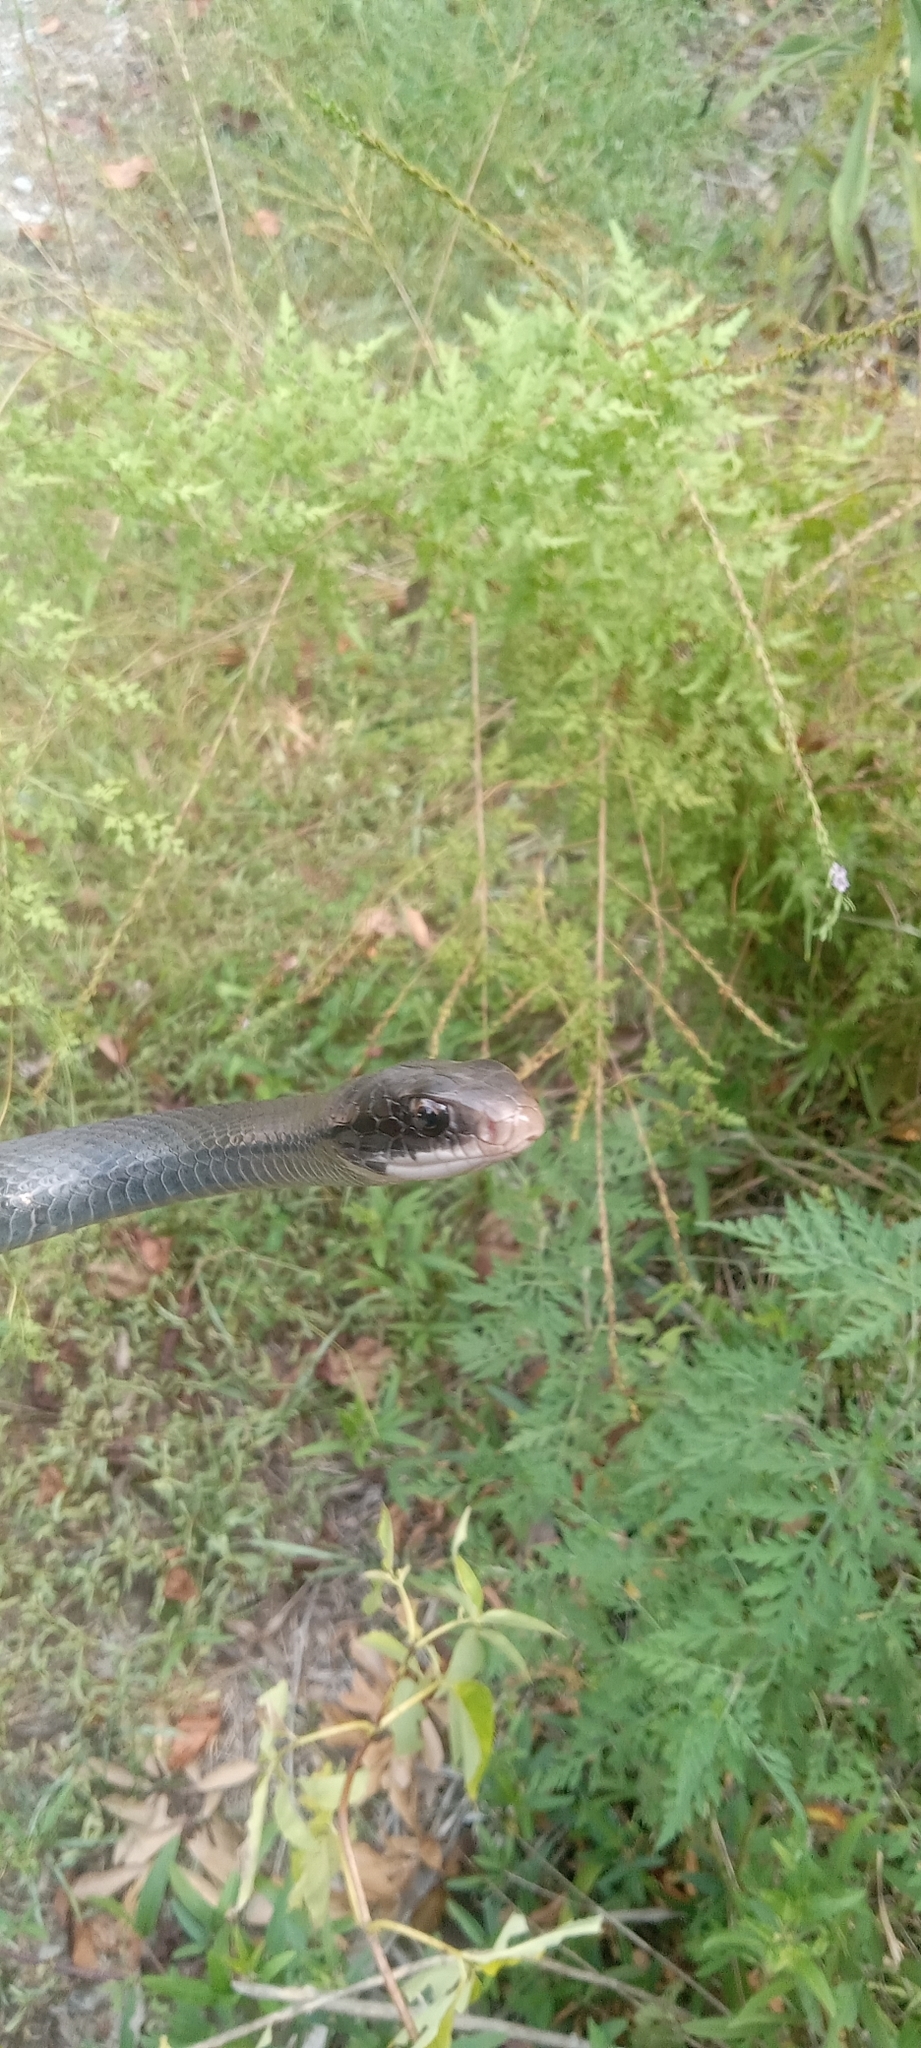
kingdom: Animalia
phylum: Chordata
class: Squamata
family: Colubridae
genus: Coluber
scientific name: Coluber constrictor
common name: Eastern racer
